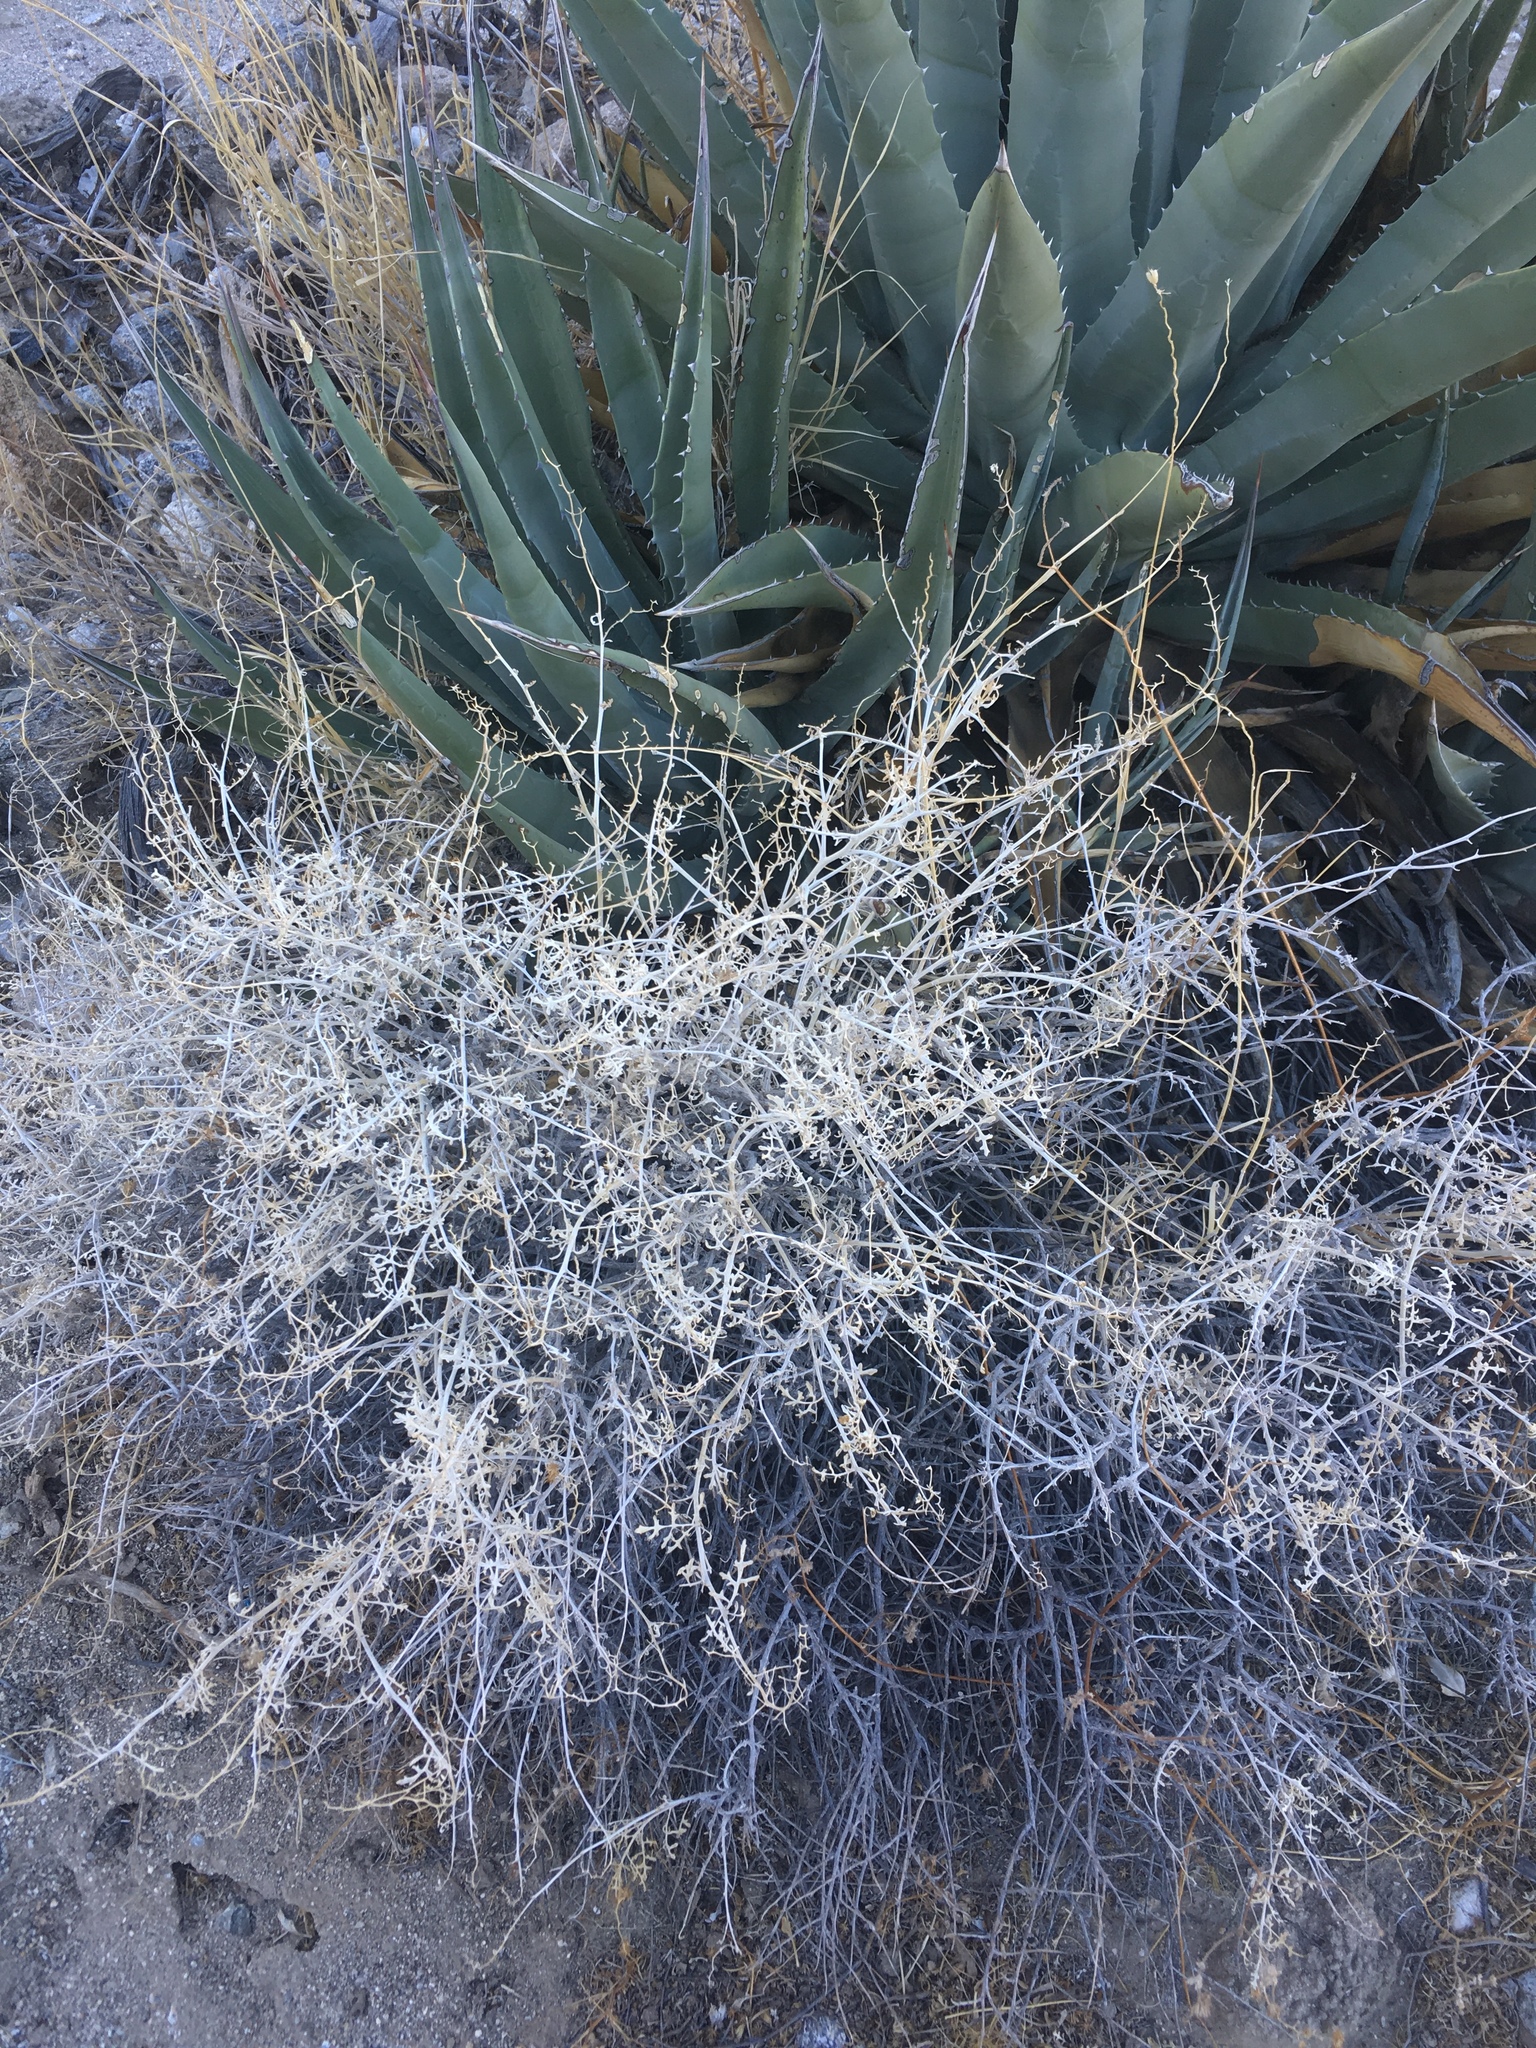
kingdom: Plantae
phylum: Tracheophyta
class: Magnoliopsida
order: Asterales
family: Asteraceae
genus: Ambrosia
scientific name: Ambrosia dumosa
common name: Bur-sage
